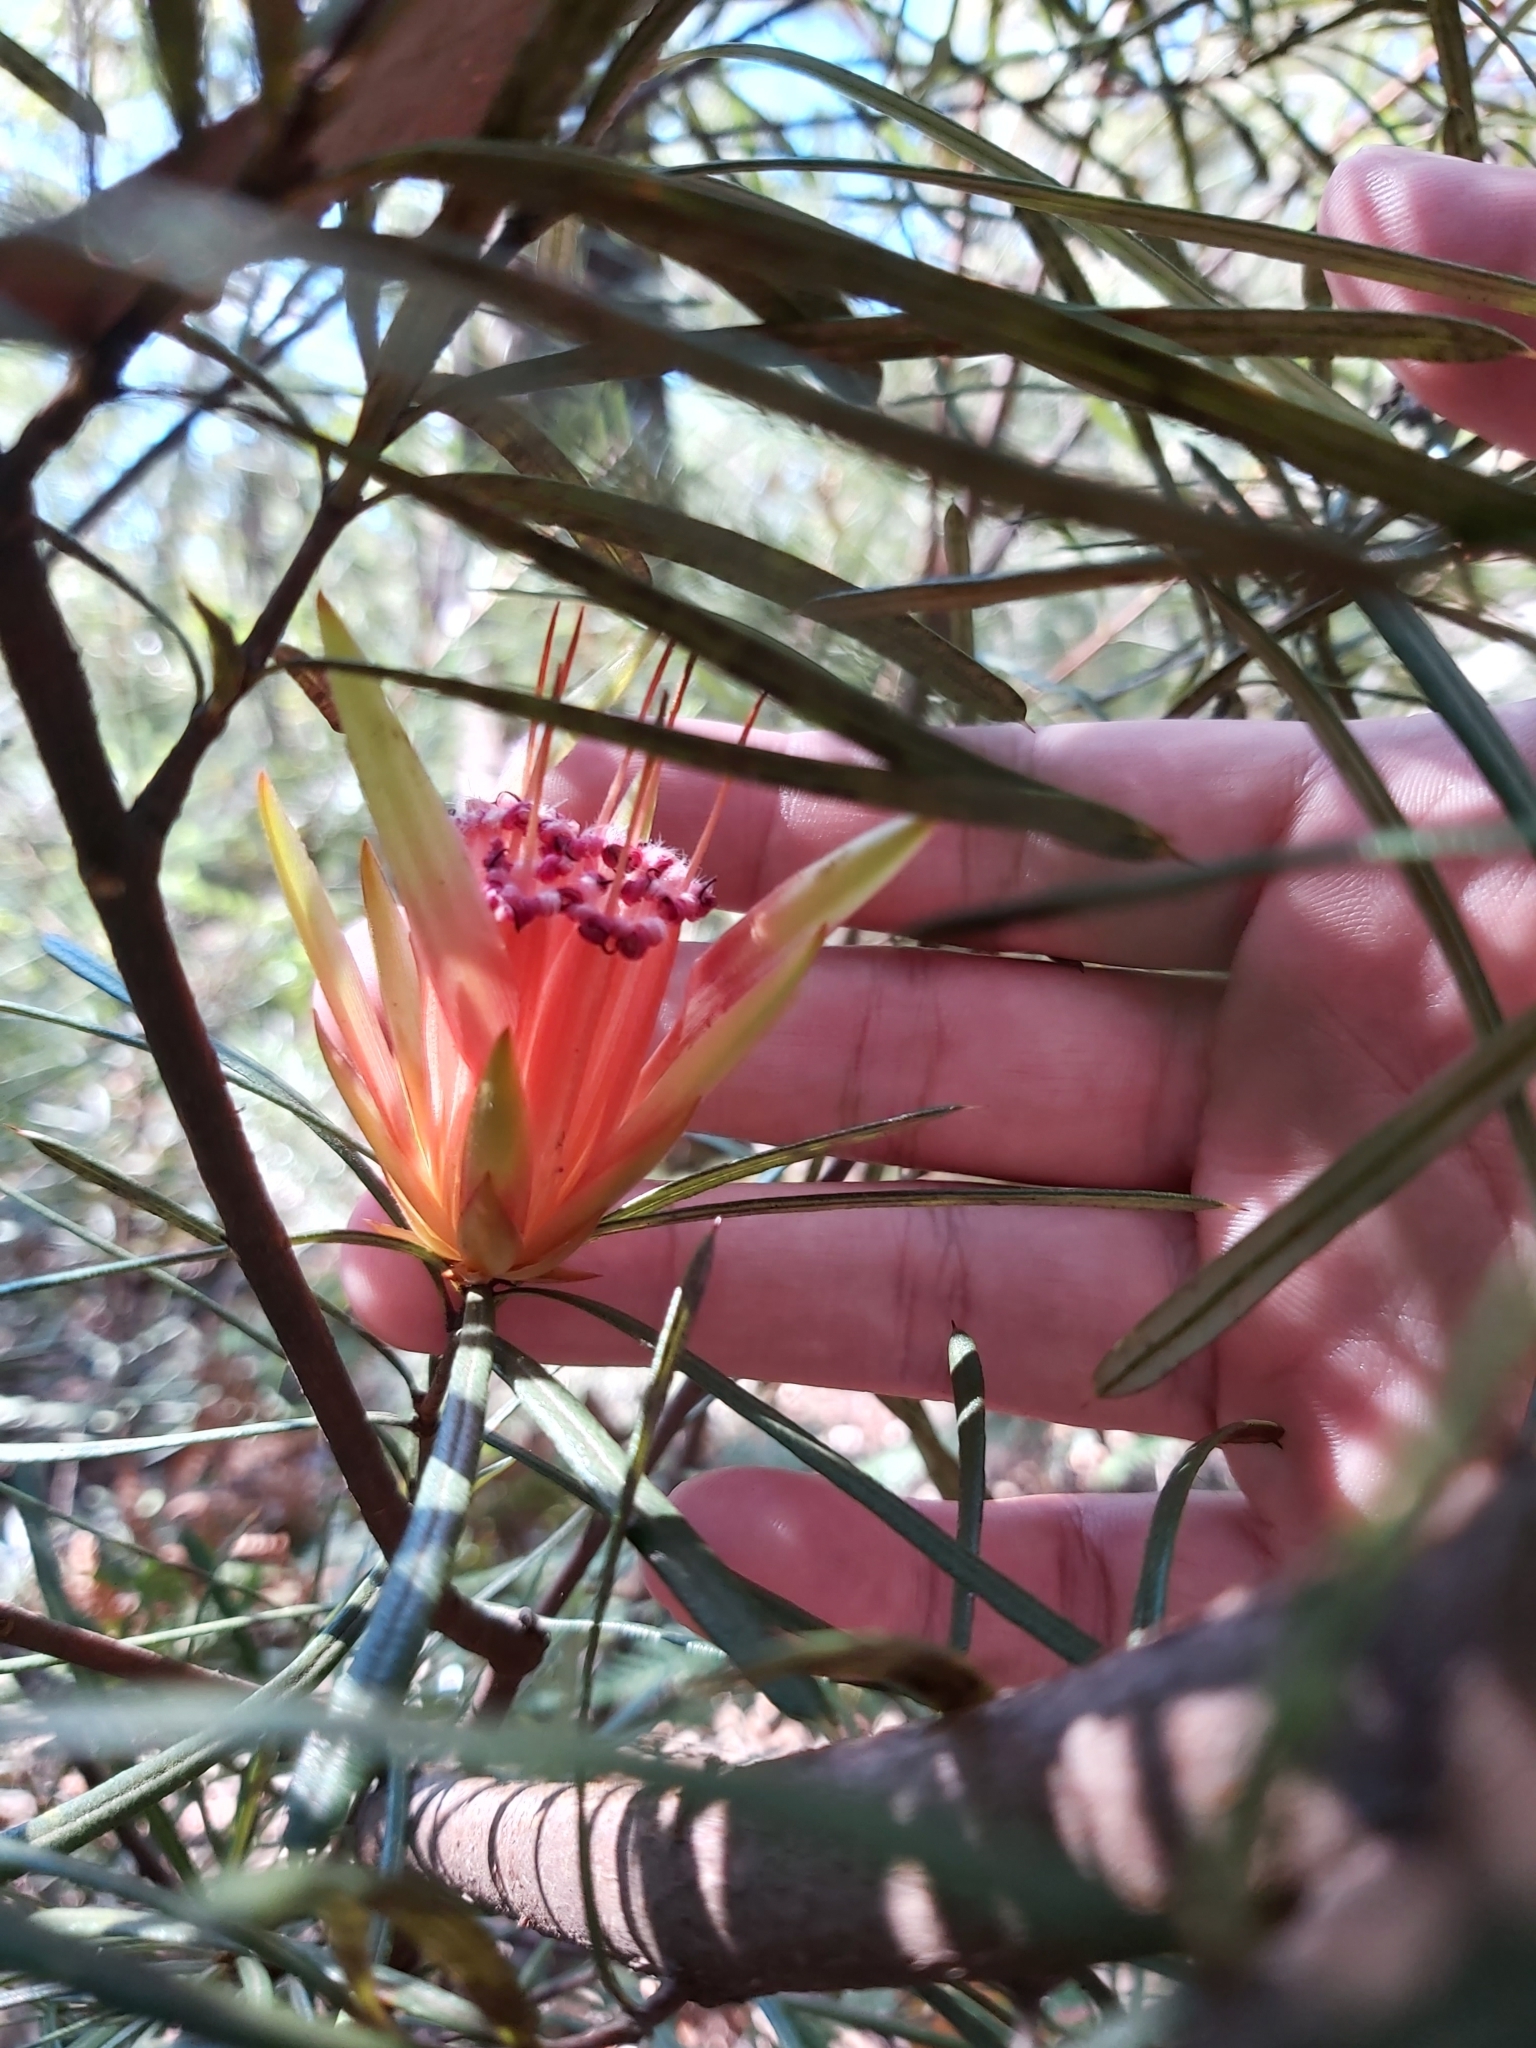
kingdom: Plantae
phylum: Tracheophyta
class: Magnoliopsida
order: Proteales
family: Proteaceae
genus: Lambertia
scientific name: Lambertia formosa
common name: Mountain-devil
